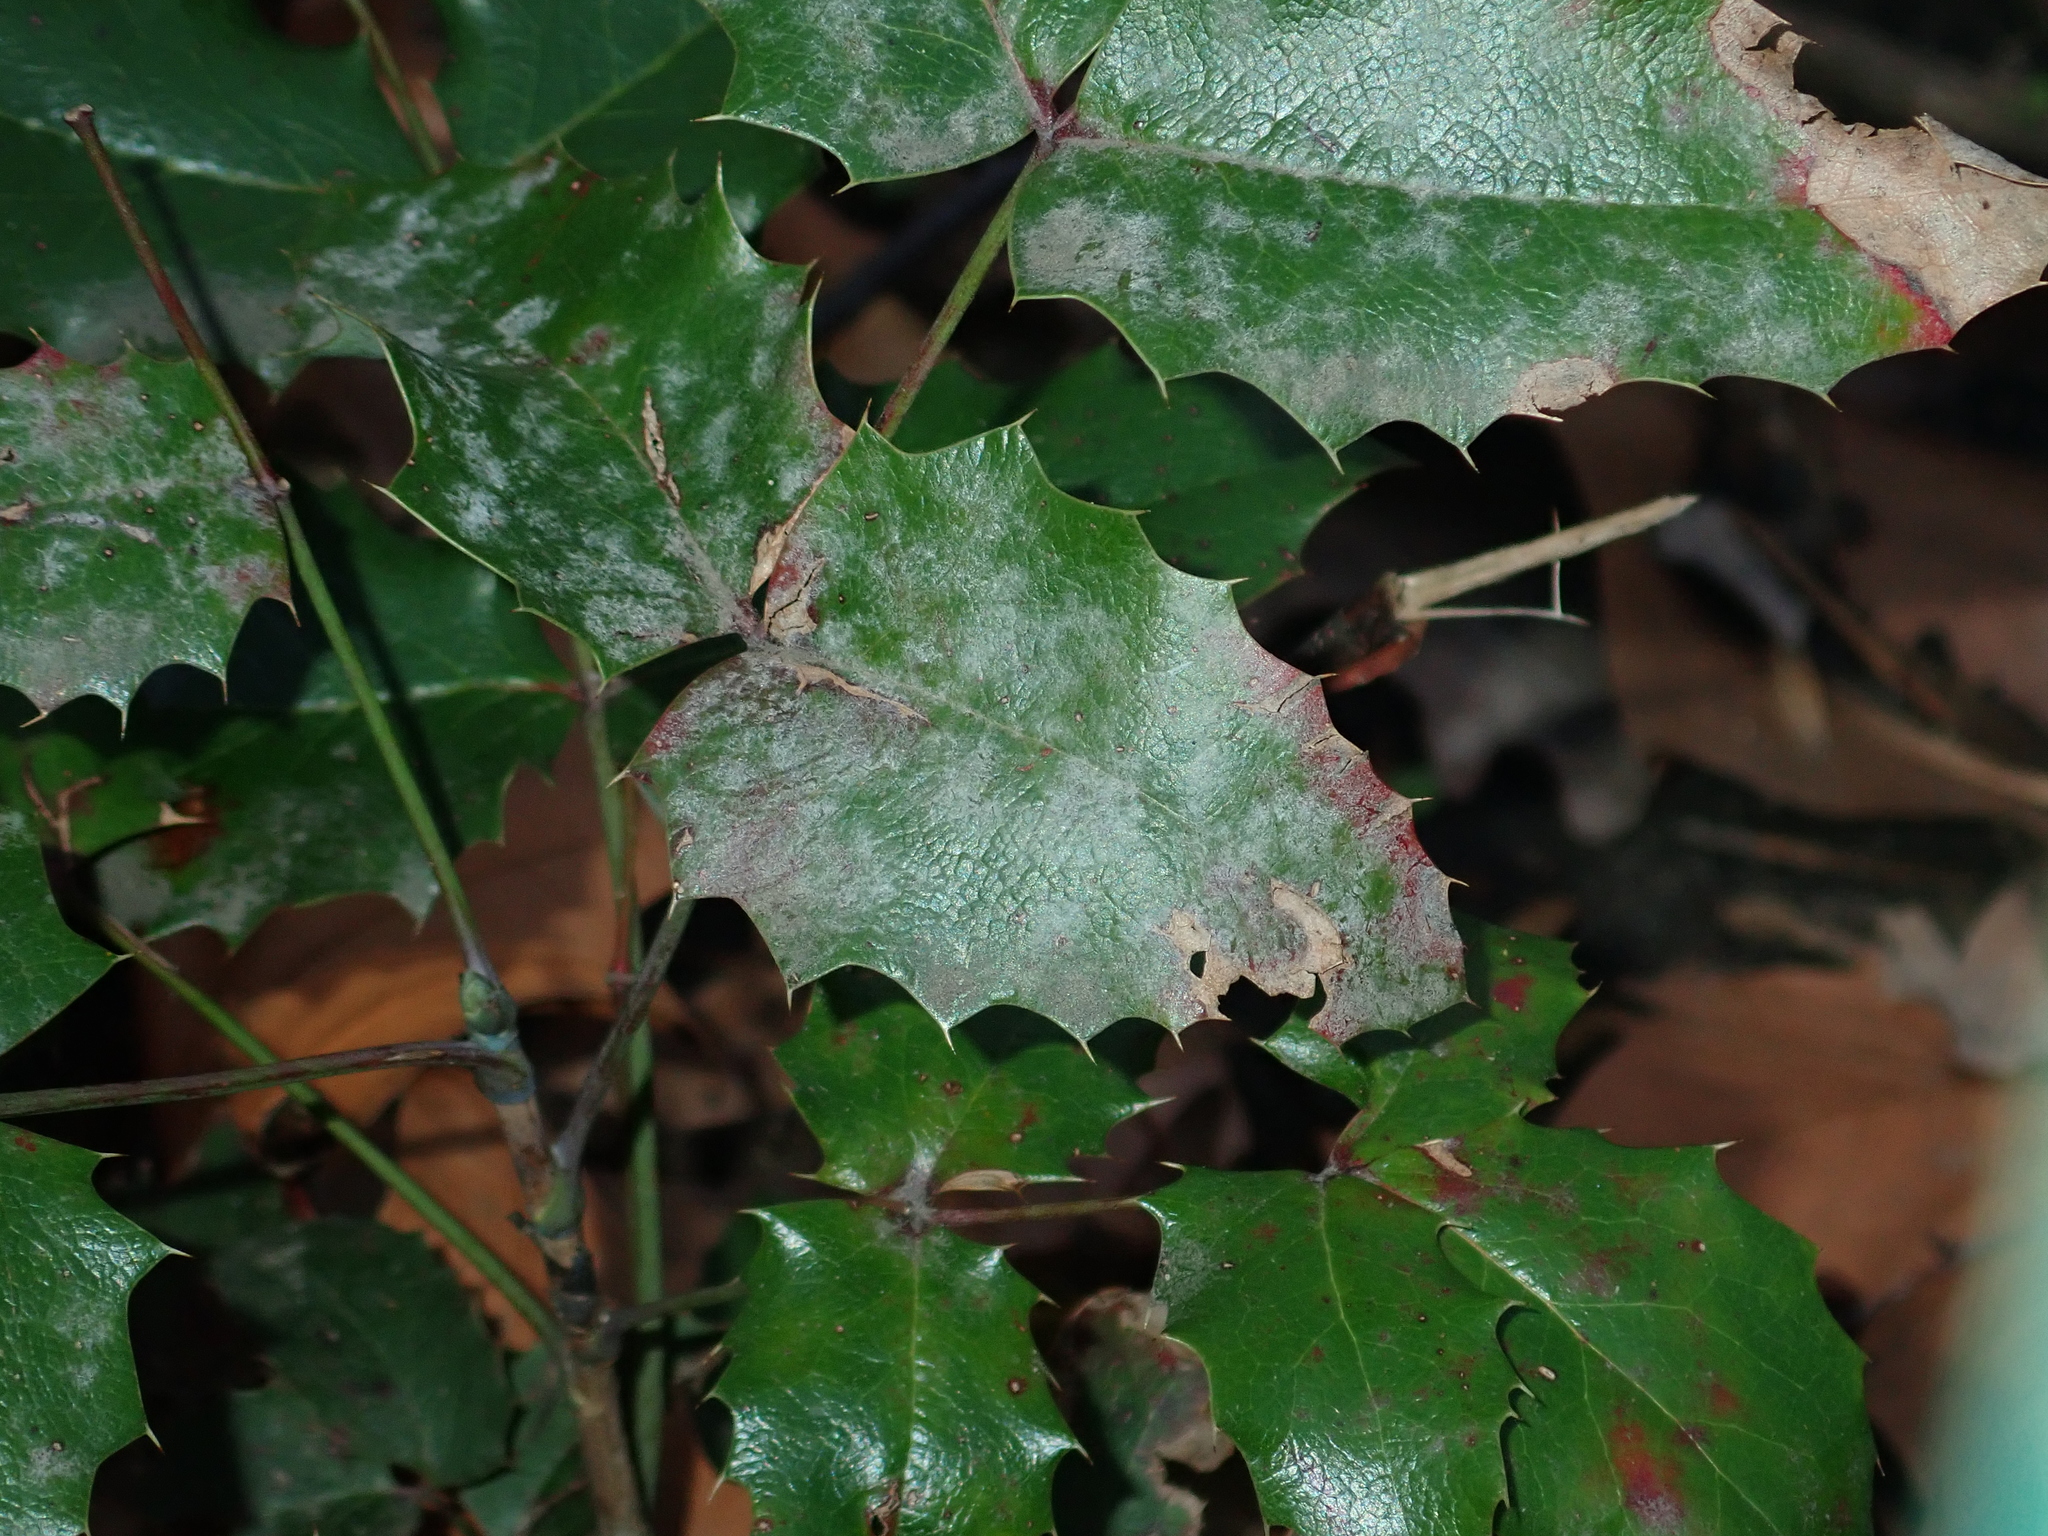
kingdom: Fungi
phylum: Ascomycota
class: Leotiomycetes
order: Helotiales
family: Erysiphaceae
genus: Erysiphe
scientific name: Erysiphe berberidis
